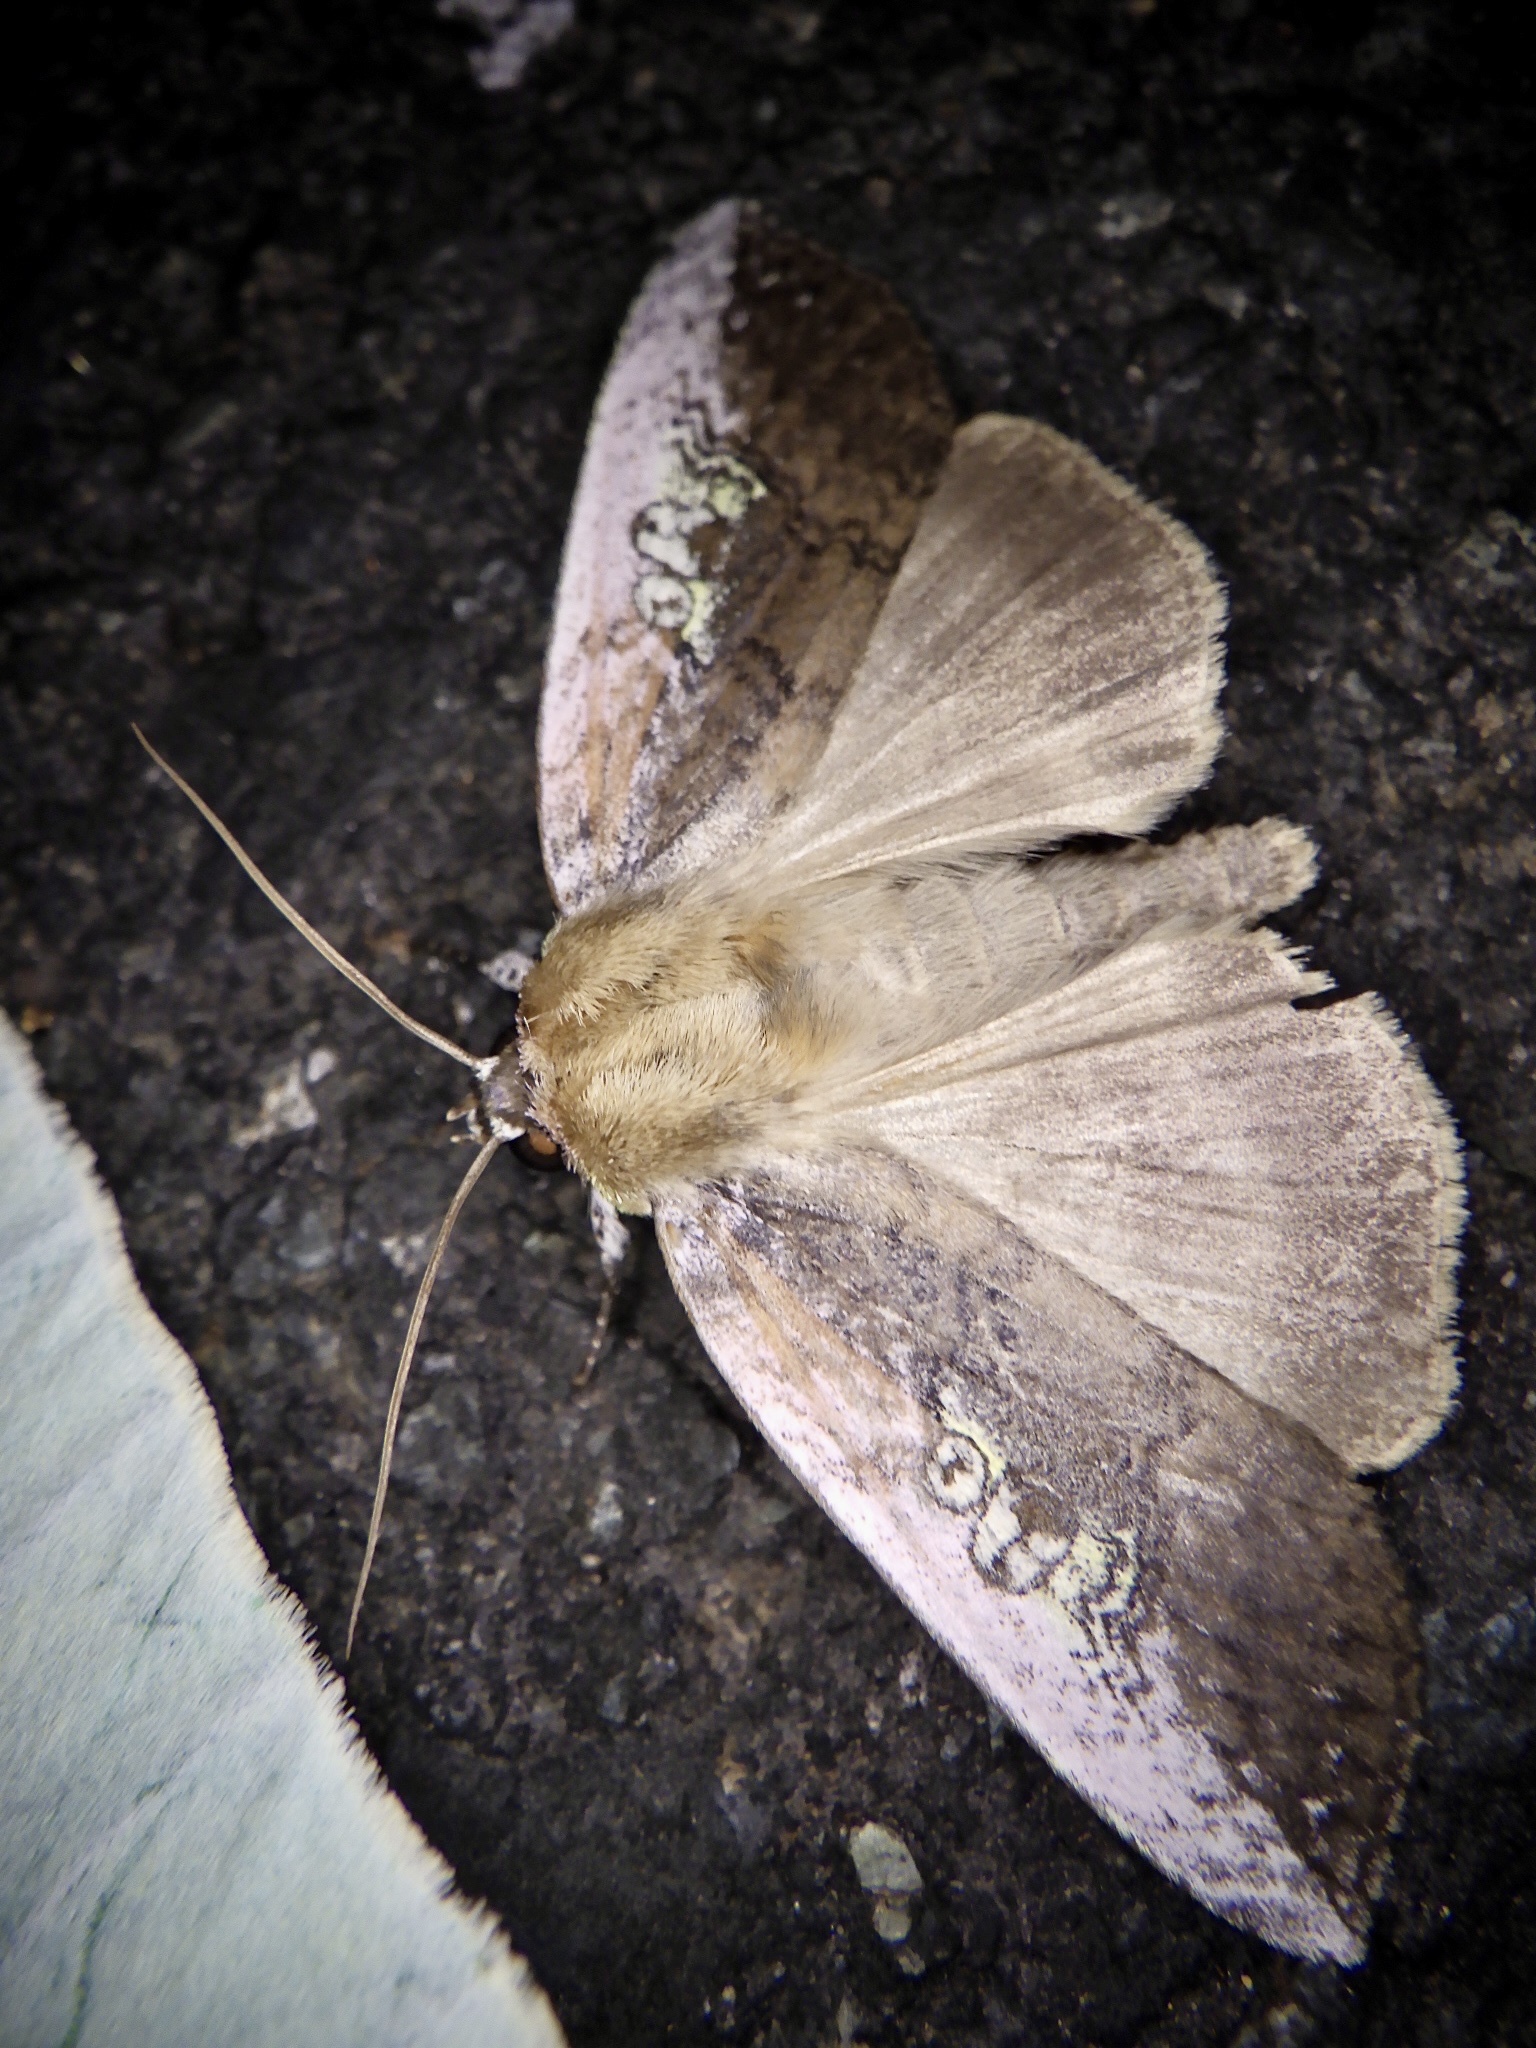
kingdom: Animalia
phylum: Arthropoda
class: Insecta
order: Lepidoptera
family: Drepanidae
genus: Tethea
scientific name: Tethea consimilis
